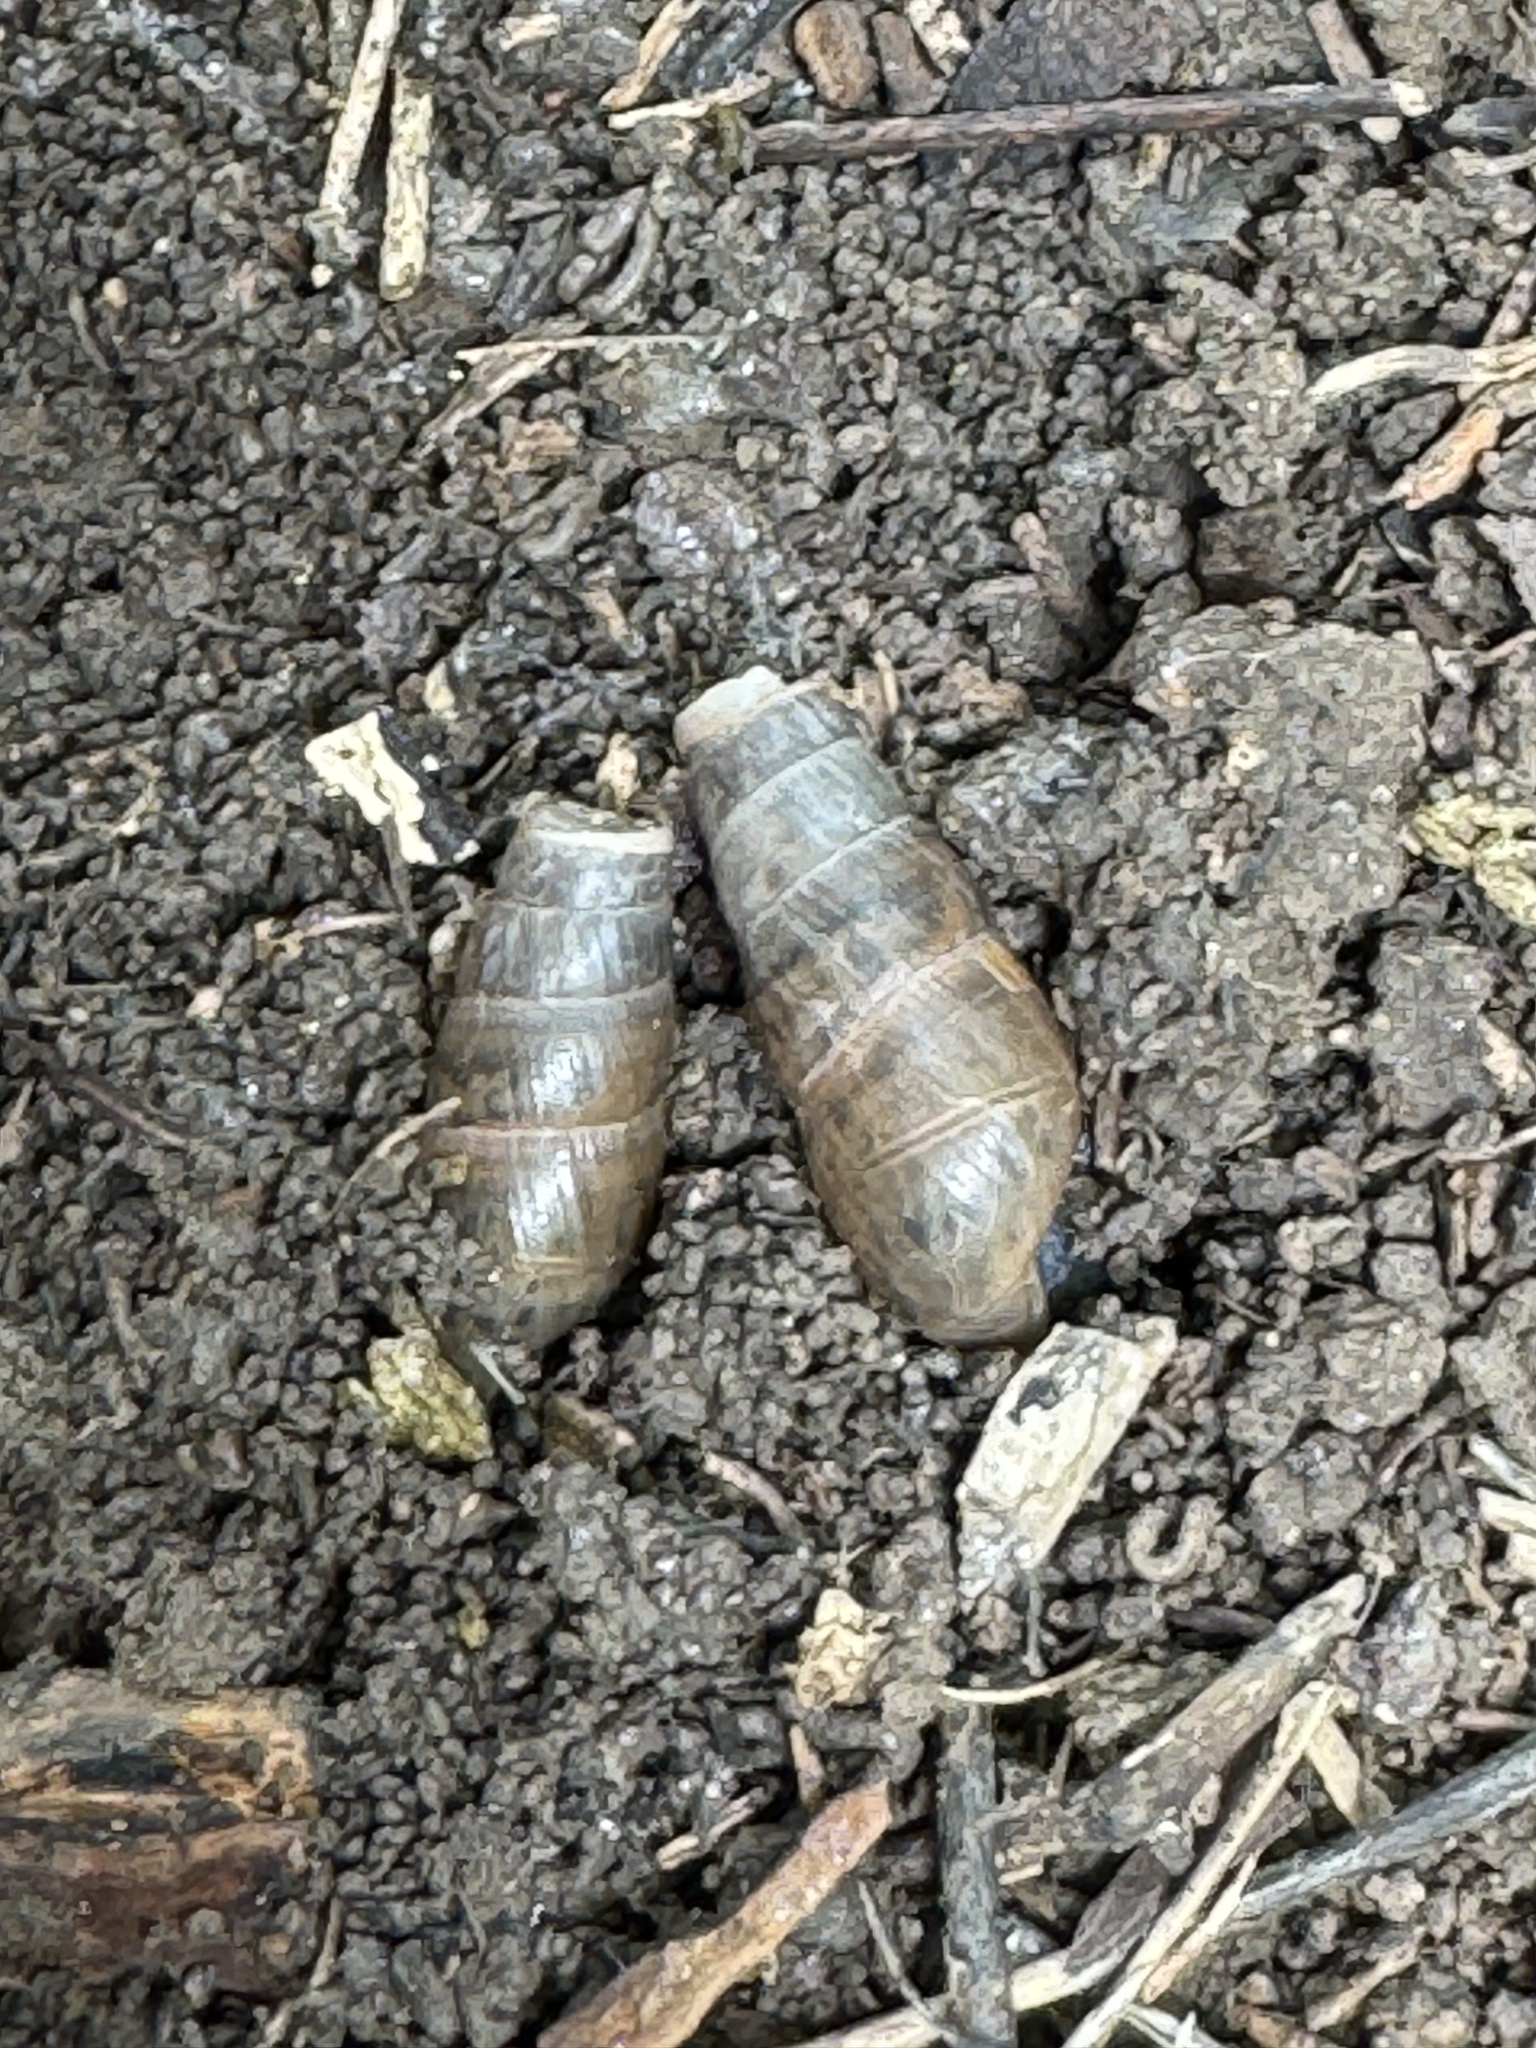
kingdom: Animalia
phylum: Mollusca
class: Gastropoda
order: Stylommatophora
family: Achatinidae
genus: Rumina
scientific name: Rumina decollata
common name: Decollate snail
